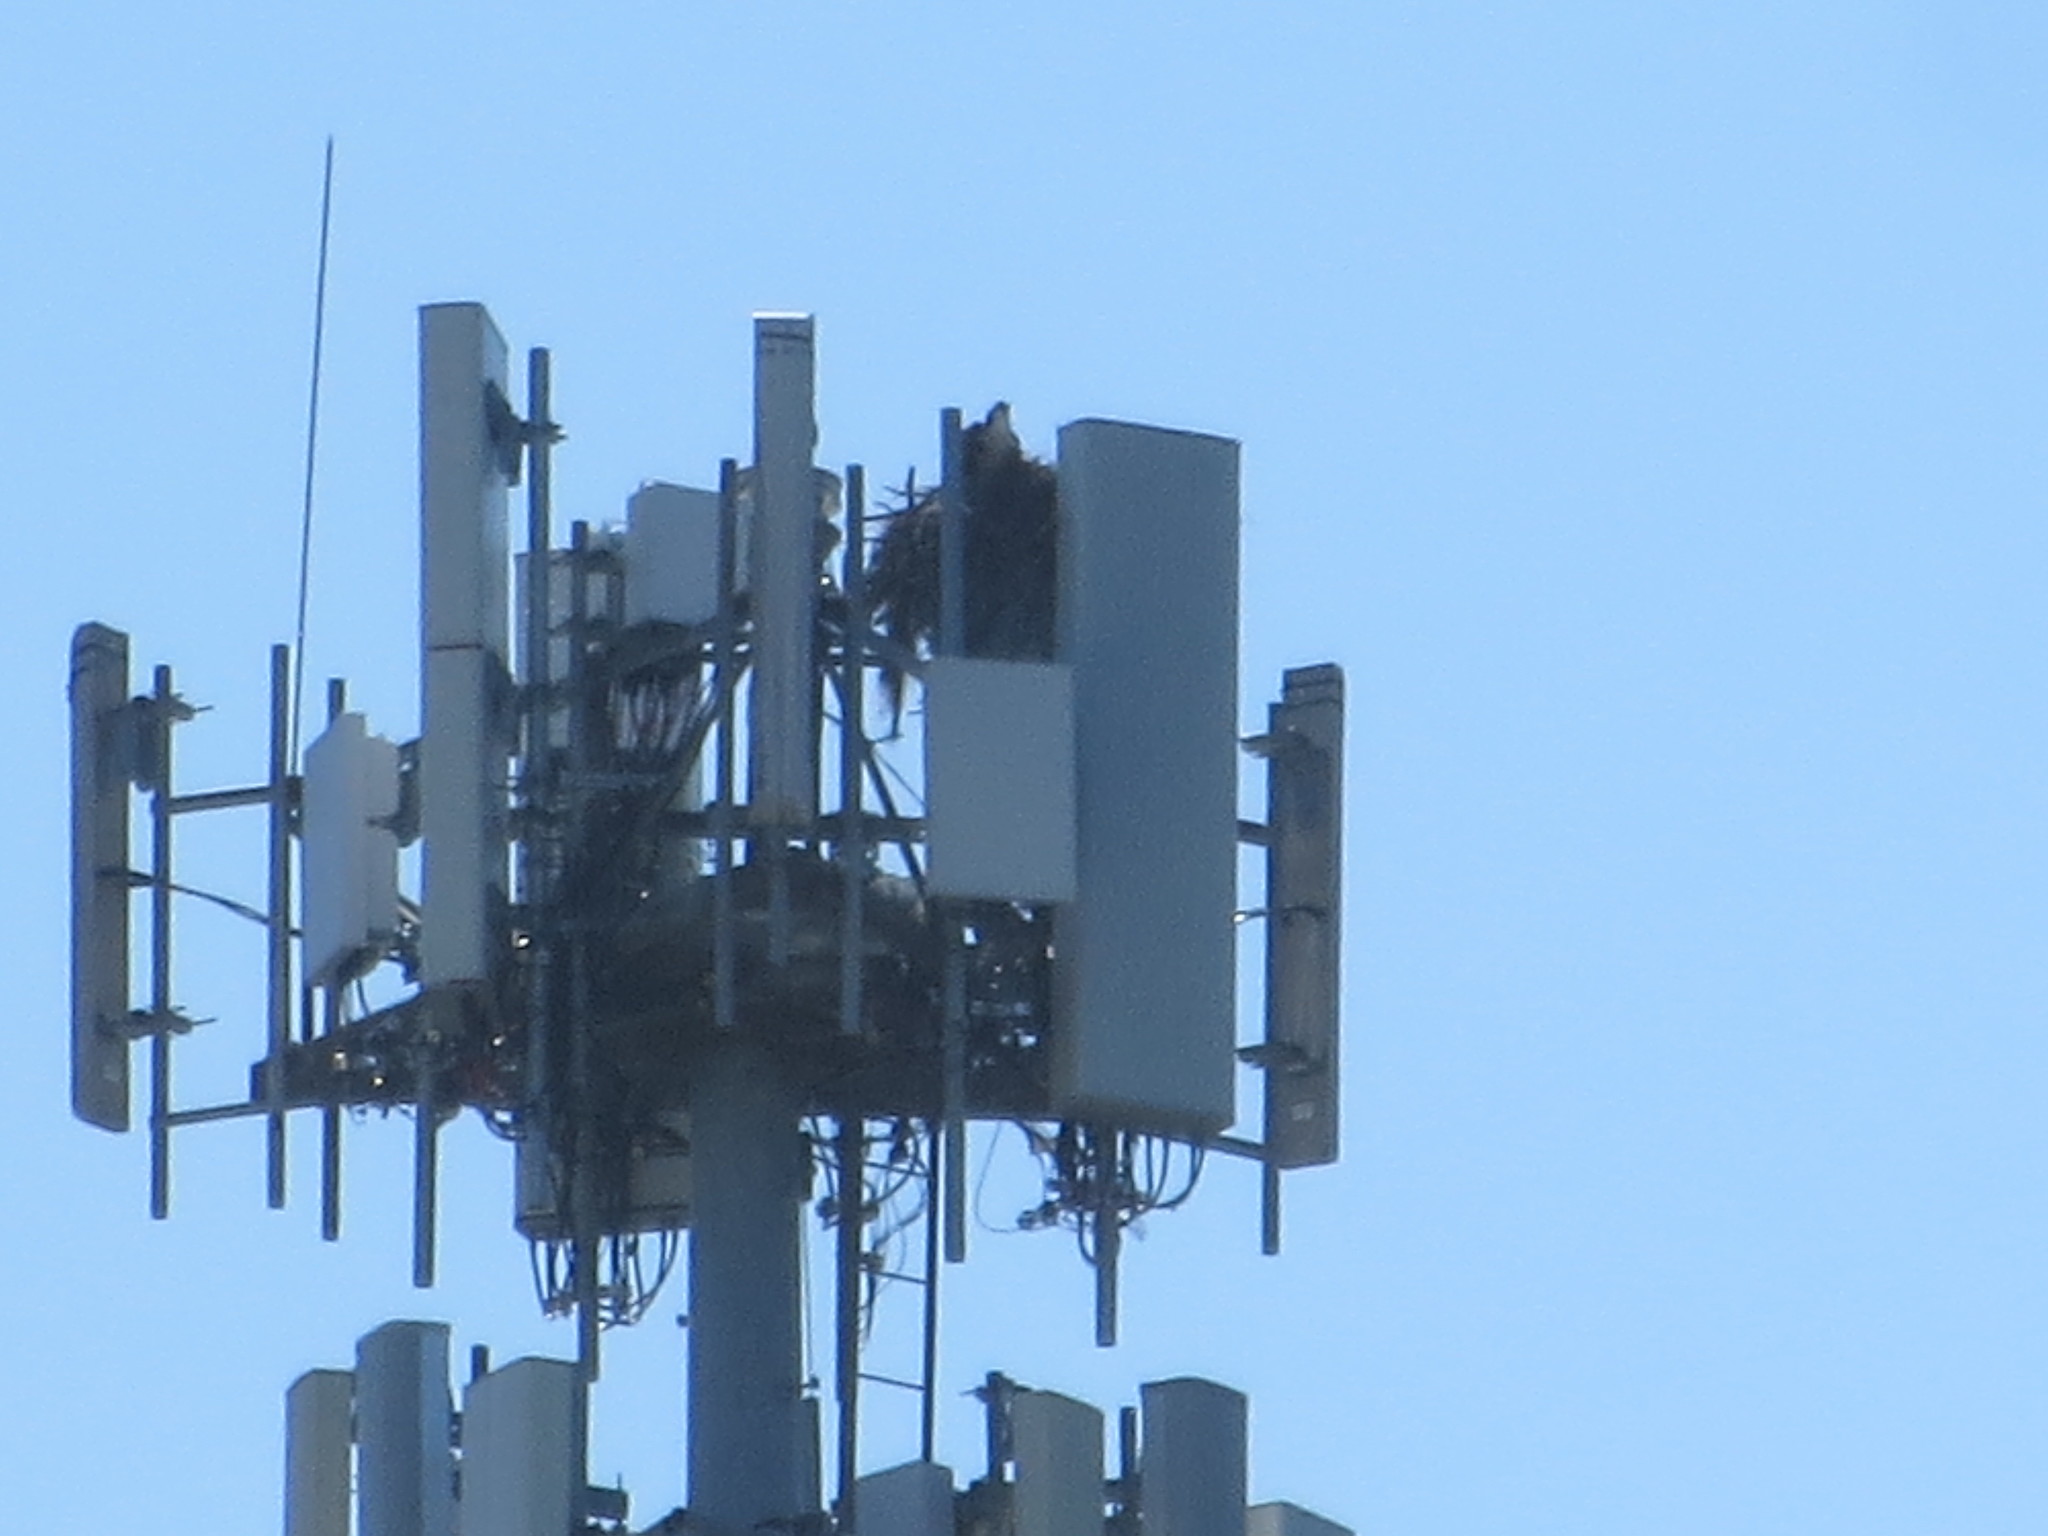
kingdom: Animalia
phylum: Chordata
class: Aves
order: Accipitriformes
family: Pandionidae
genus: Pandion
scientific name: Pandion haliaetus
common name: Osprey
